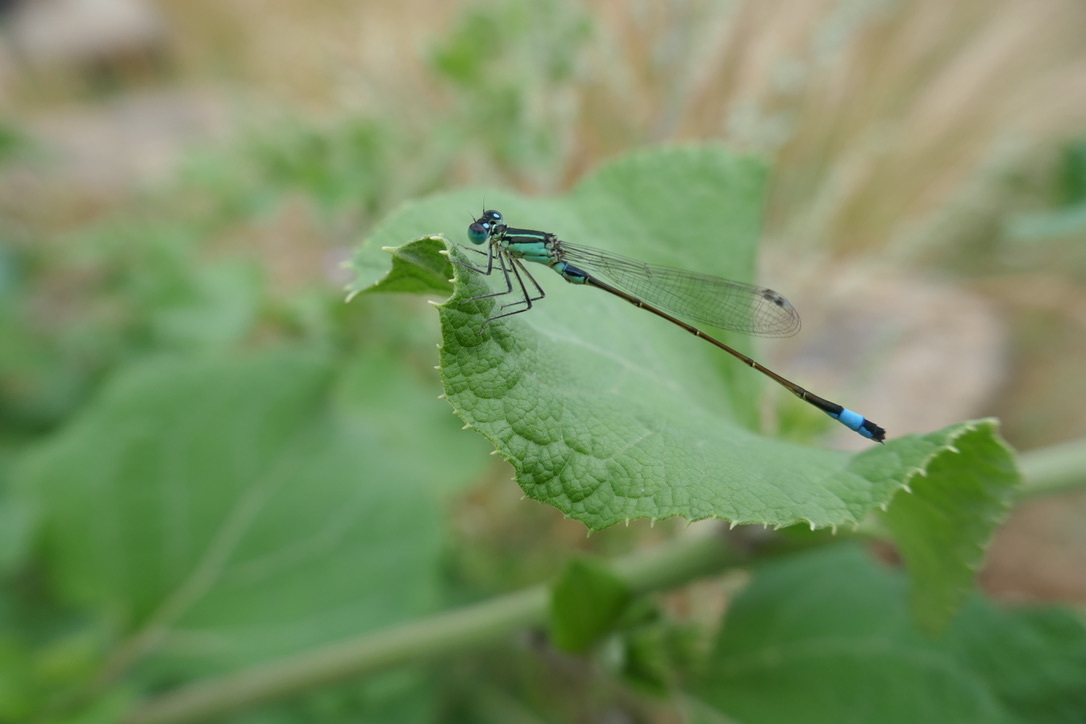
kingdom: Animalia
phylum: Arthropoda
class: Insecta
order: Odonata
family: Coenagrionidae
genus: Ischnura
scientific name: Ischnura elegans
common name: Blue-tailed damselfly
